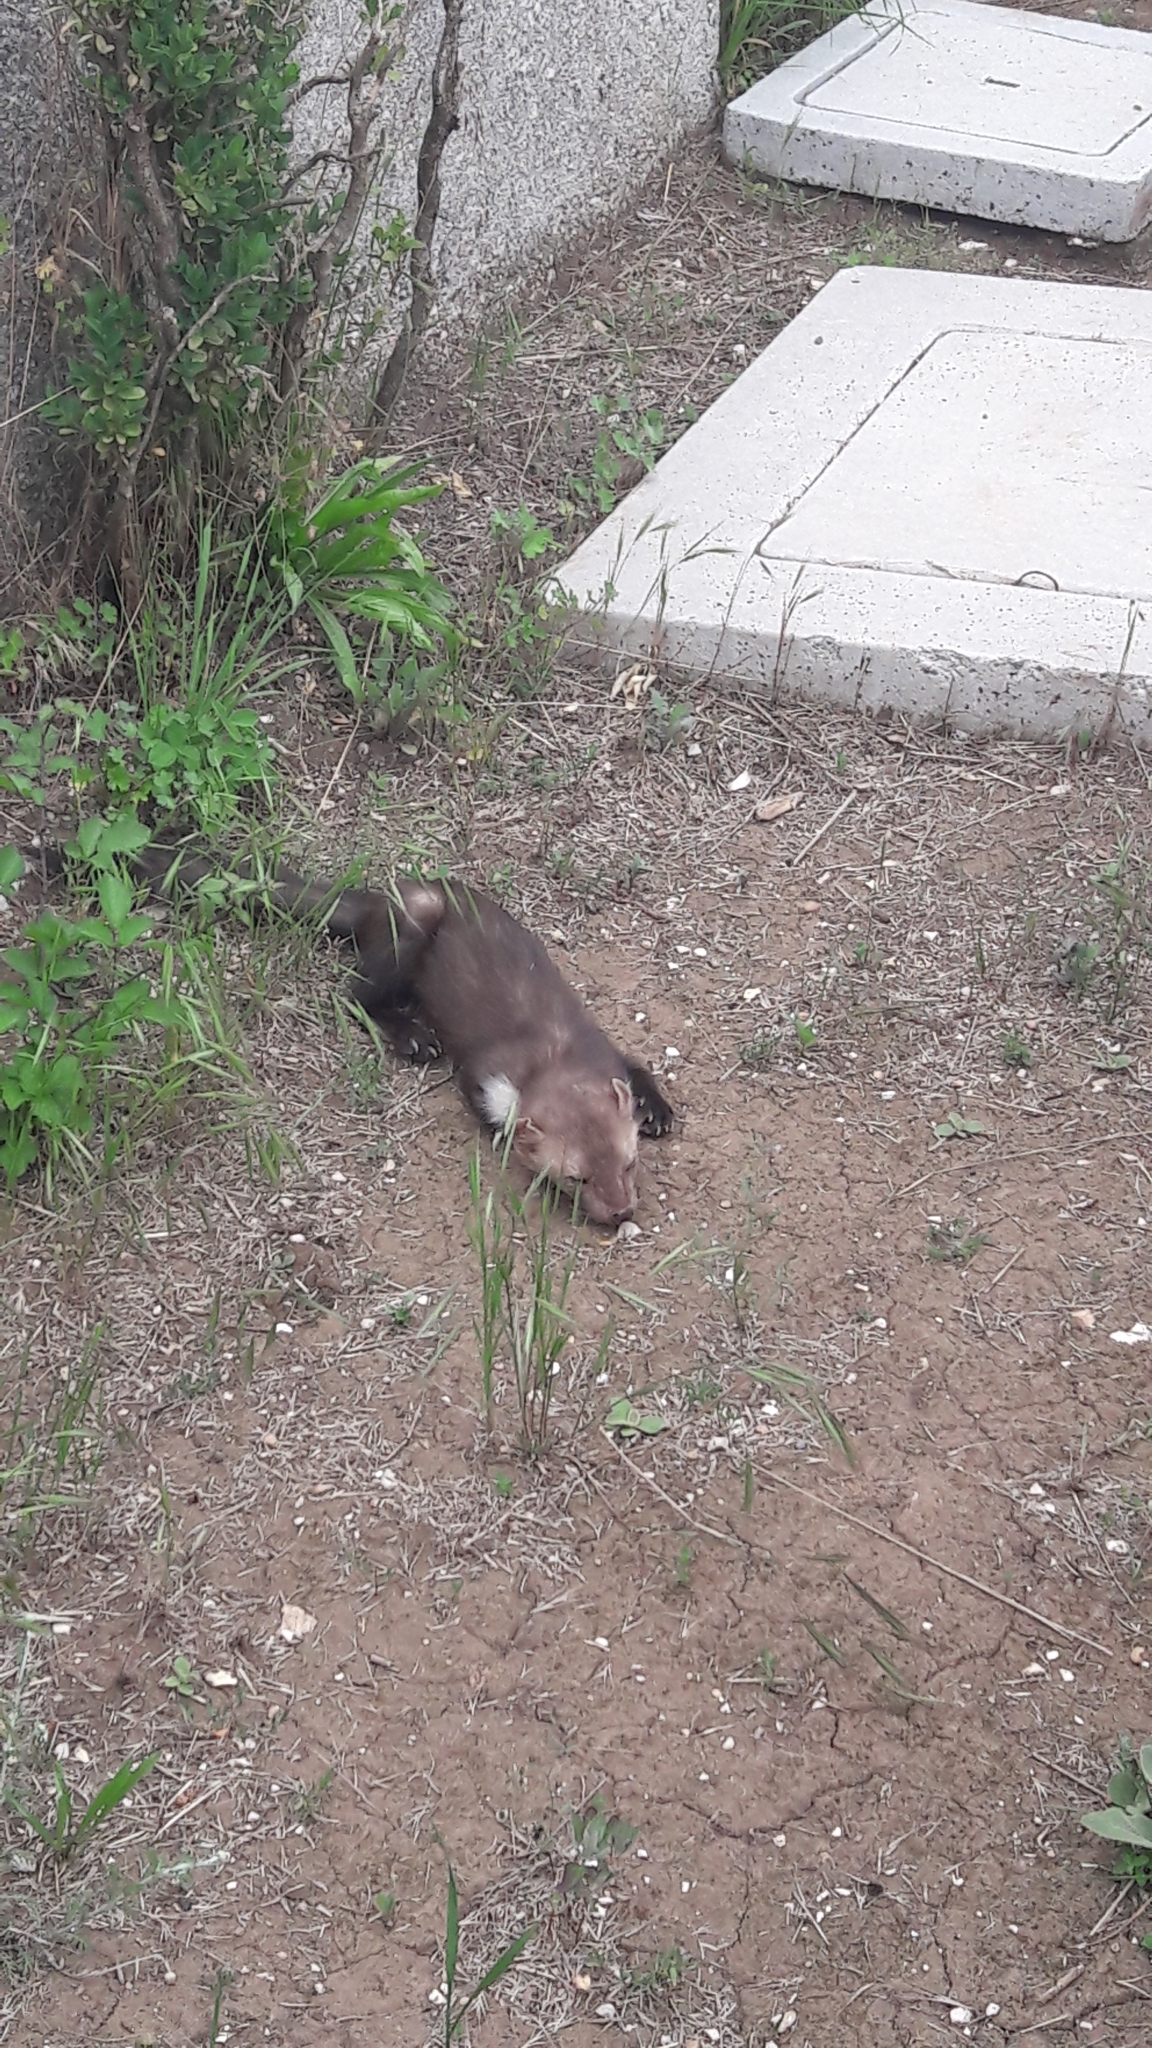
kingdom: Animalia
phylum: Chordata
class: Mammalia
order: Carnivora
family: Mustelidae
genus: Martes
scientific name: Martes foina
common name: Beech marten
